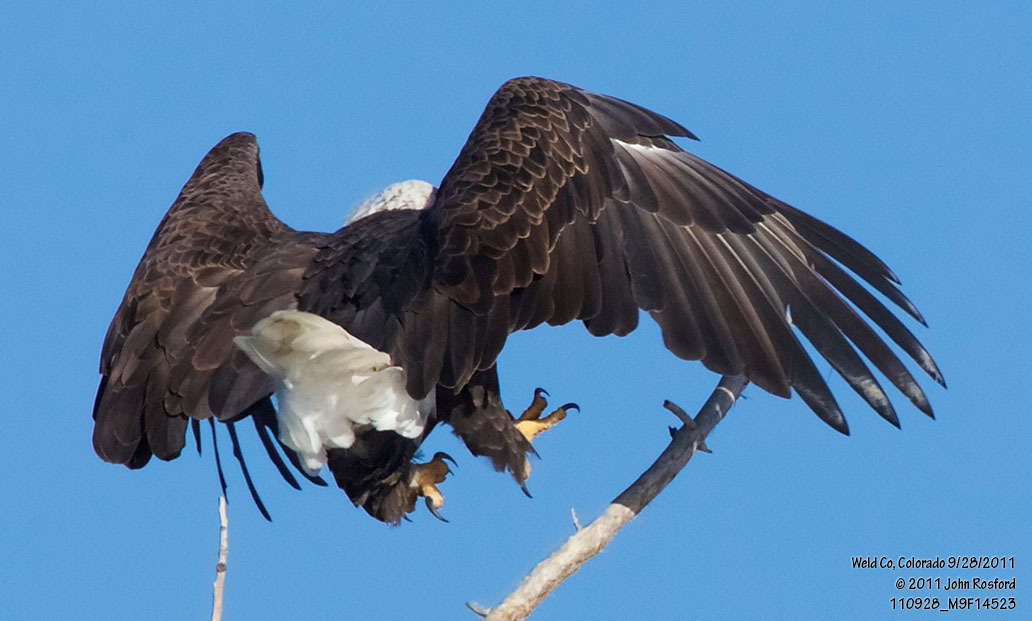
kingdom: Animalia
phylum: Chordata
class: Aves
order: Accipitriformes
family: Accipitridae
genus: Haliaeetus
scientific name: Haliaeetus leucocephalus
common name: Bald eagle
